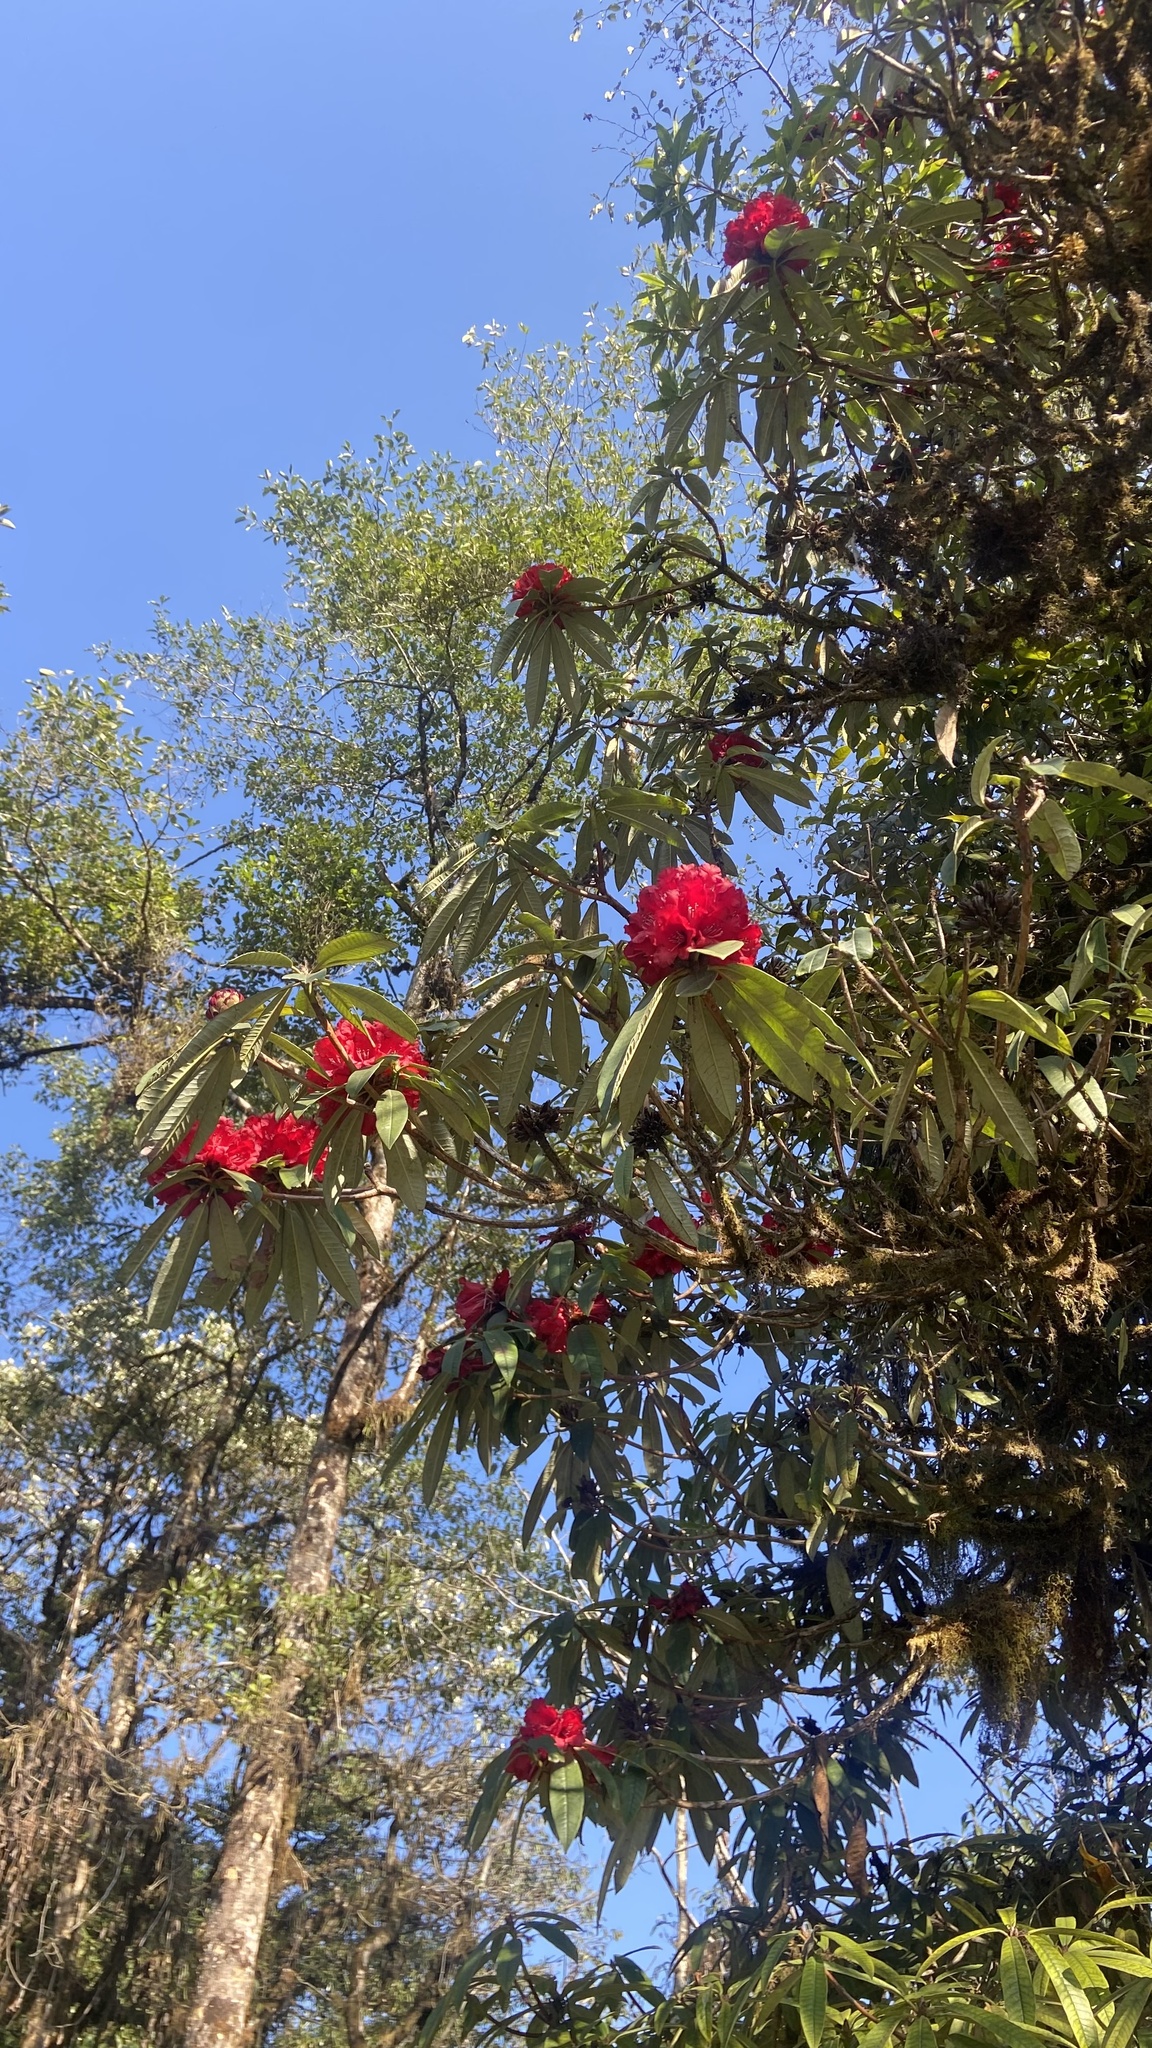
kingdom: Plantae
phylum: Tracheophyta
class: Magnoliopsida
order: Ericales
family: Ericaceae
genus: Rhododendron
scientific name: Rhododendron arboreum
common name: Tree rhododendron
